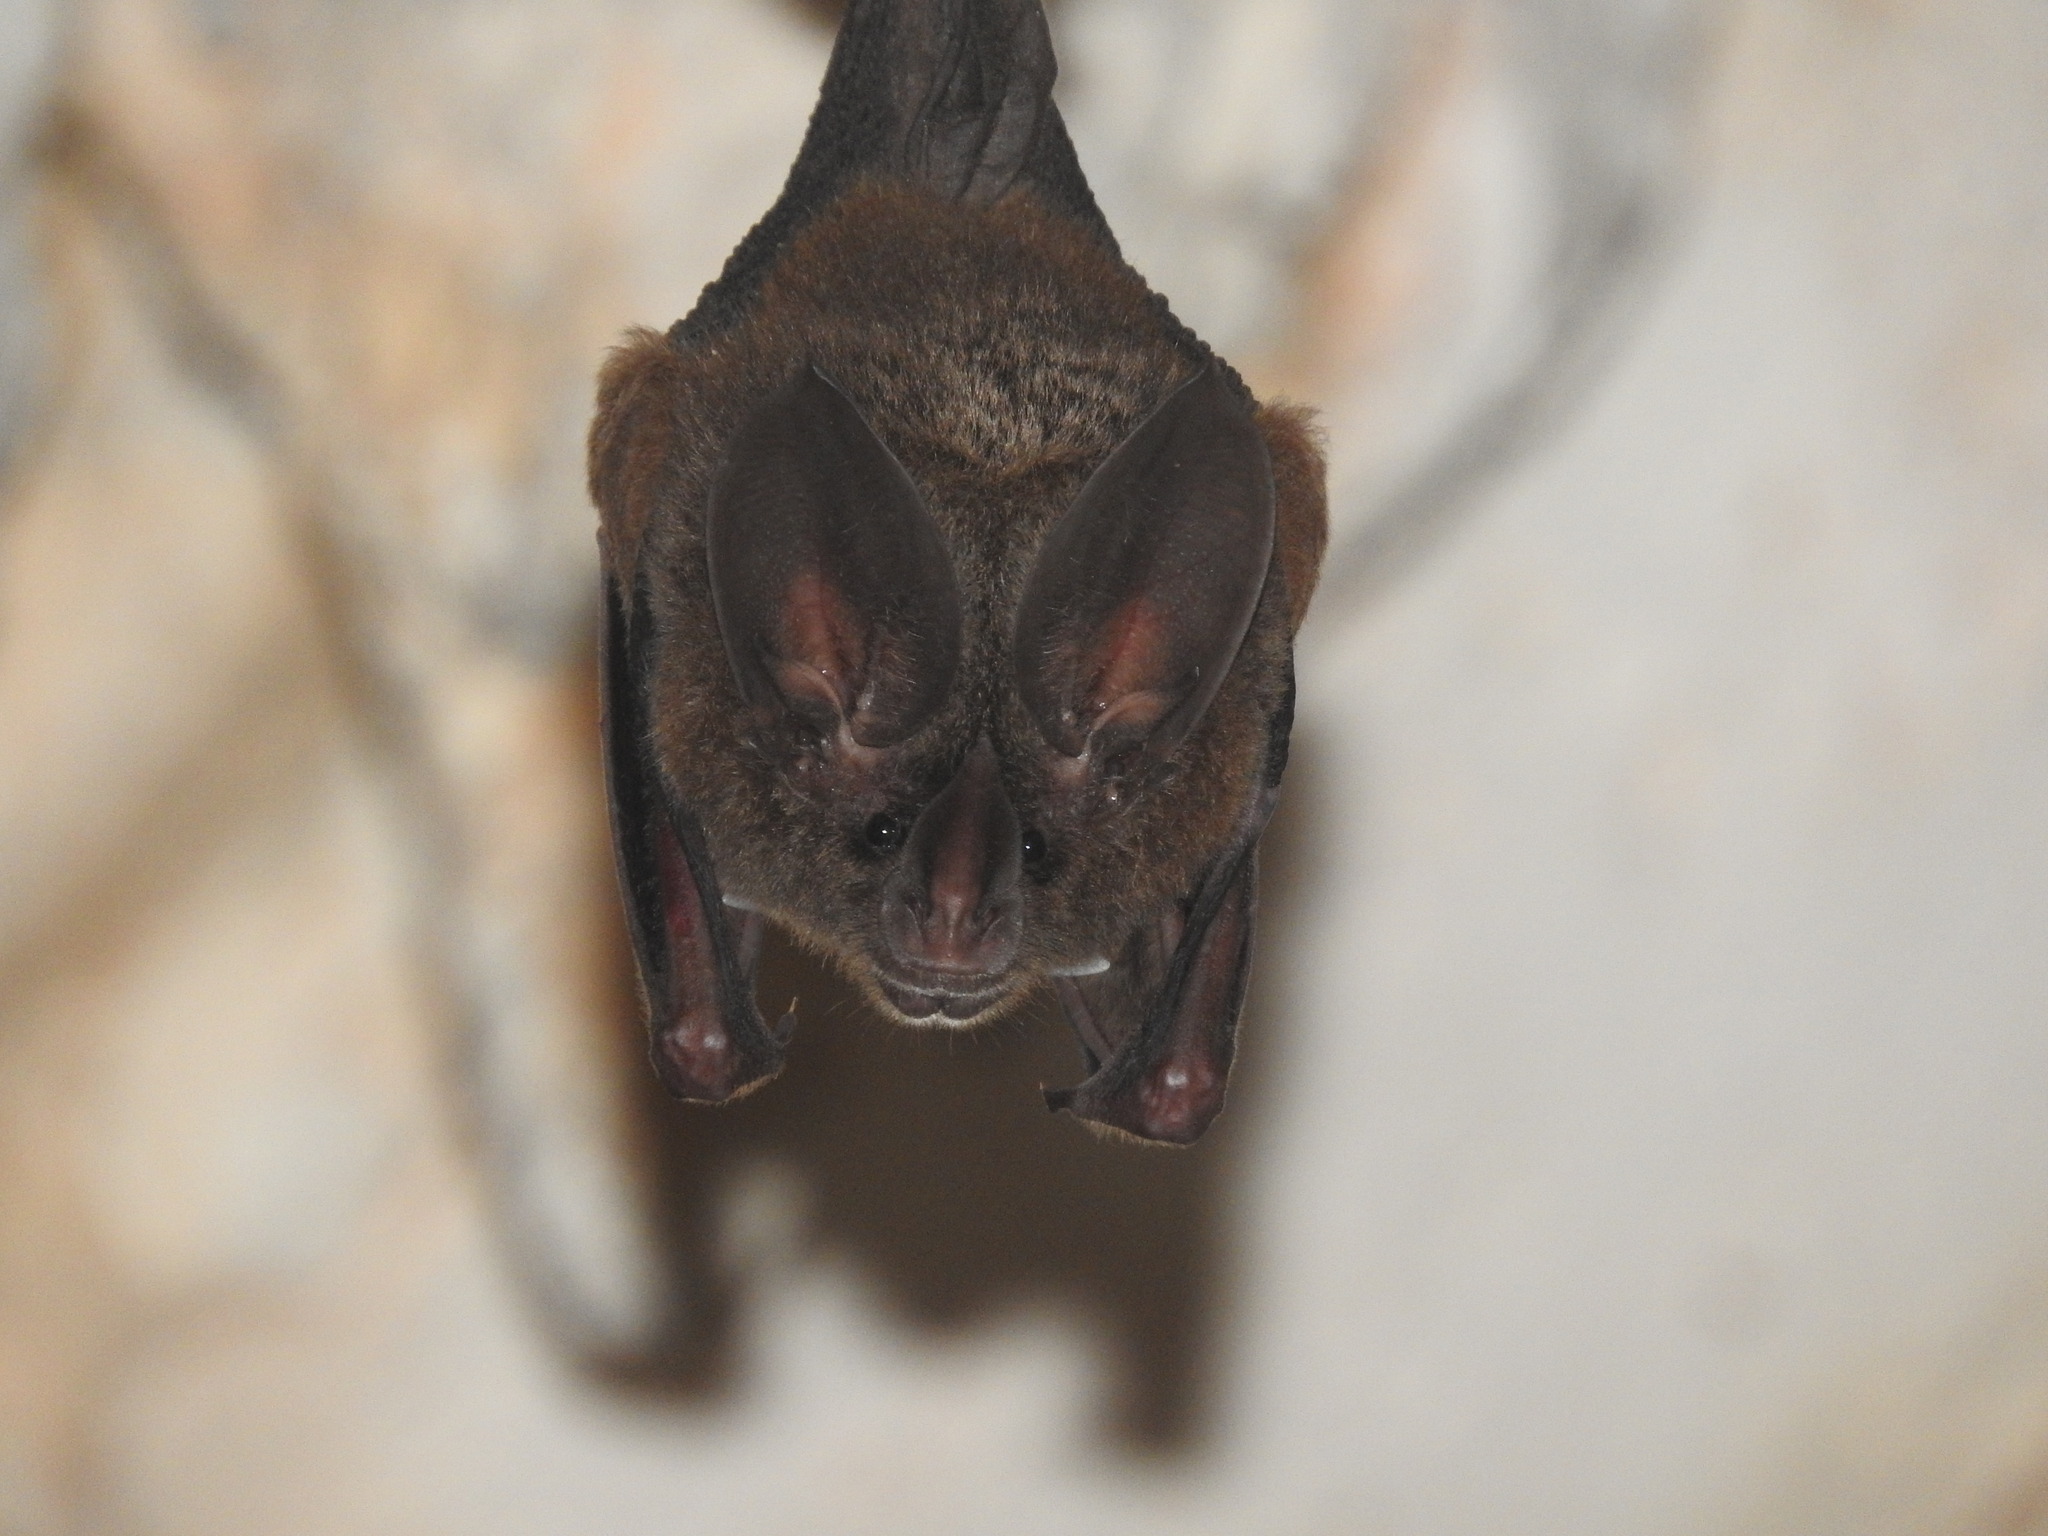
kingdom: Animalia
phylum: Chordata
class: Mammalia
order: Chiroptera
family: Phyllostomidae
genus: Mimon
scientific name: Mimon cozumelae
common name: Cozumelan golden bat
